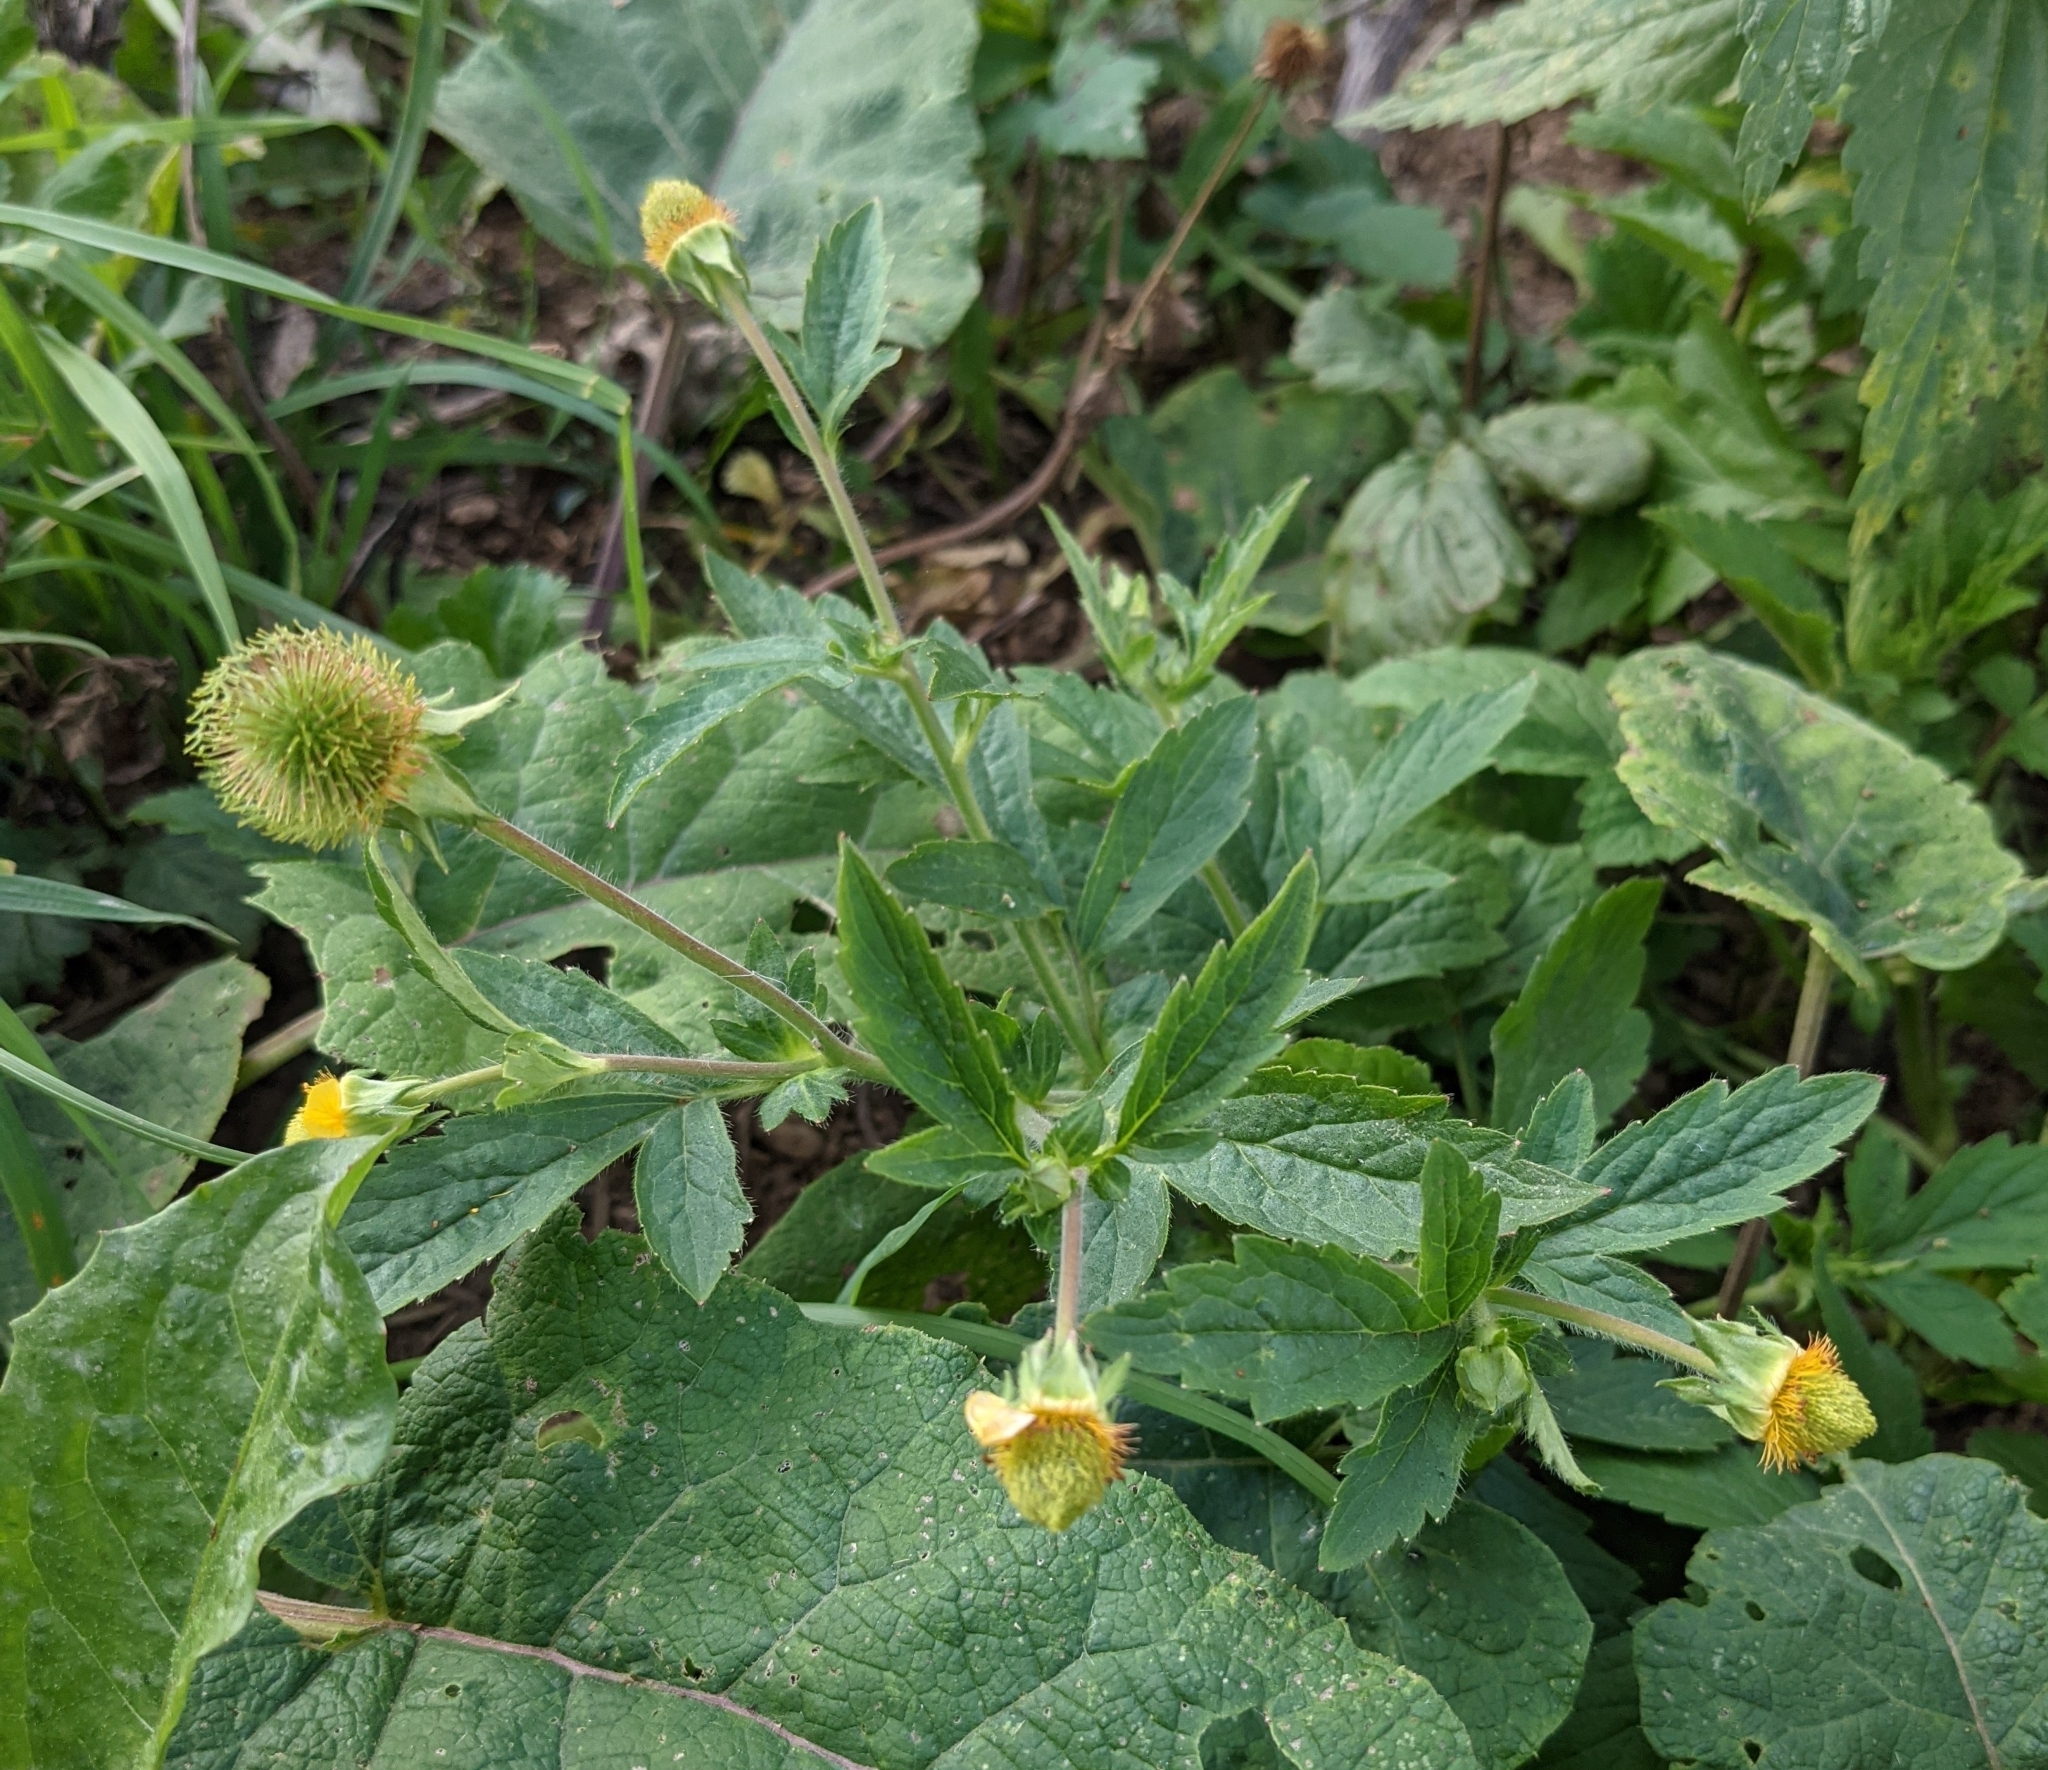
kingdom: Plantae
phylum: Tracheophyta
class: Magnoliopsida
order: Rosales
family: Rosaceae
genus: Geum
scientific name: Geum aleppicum
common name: Yellow avens
